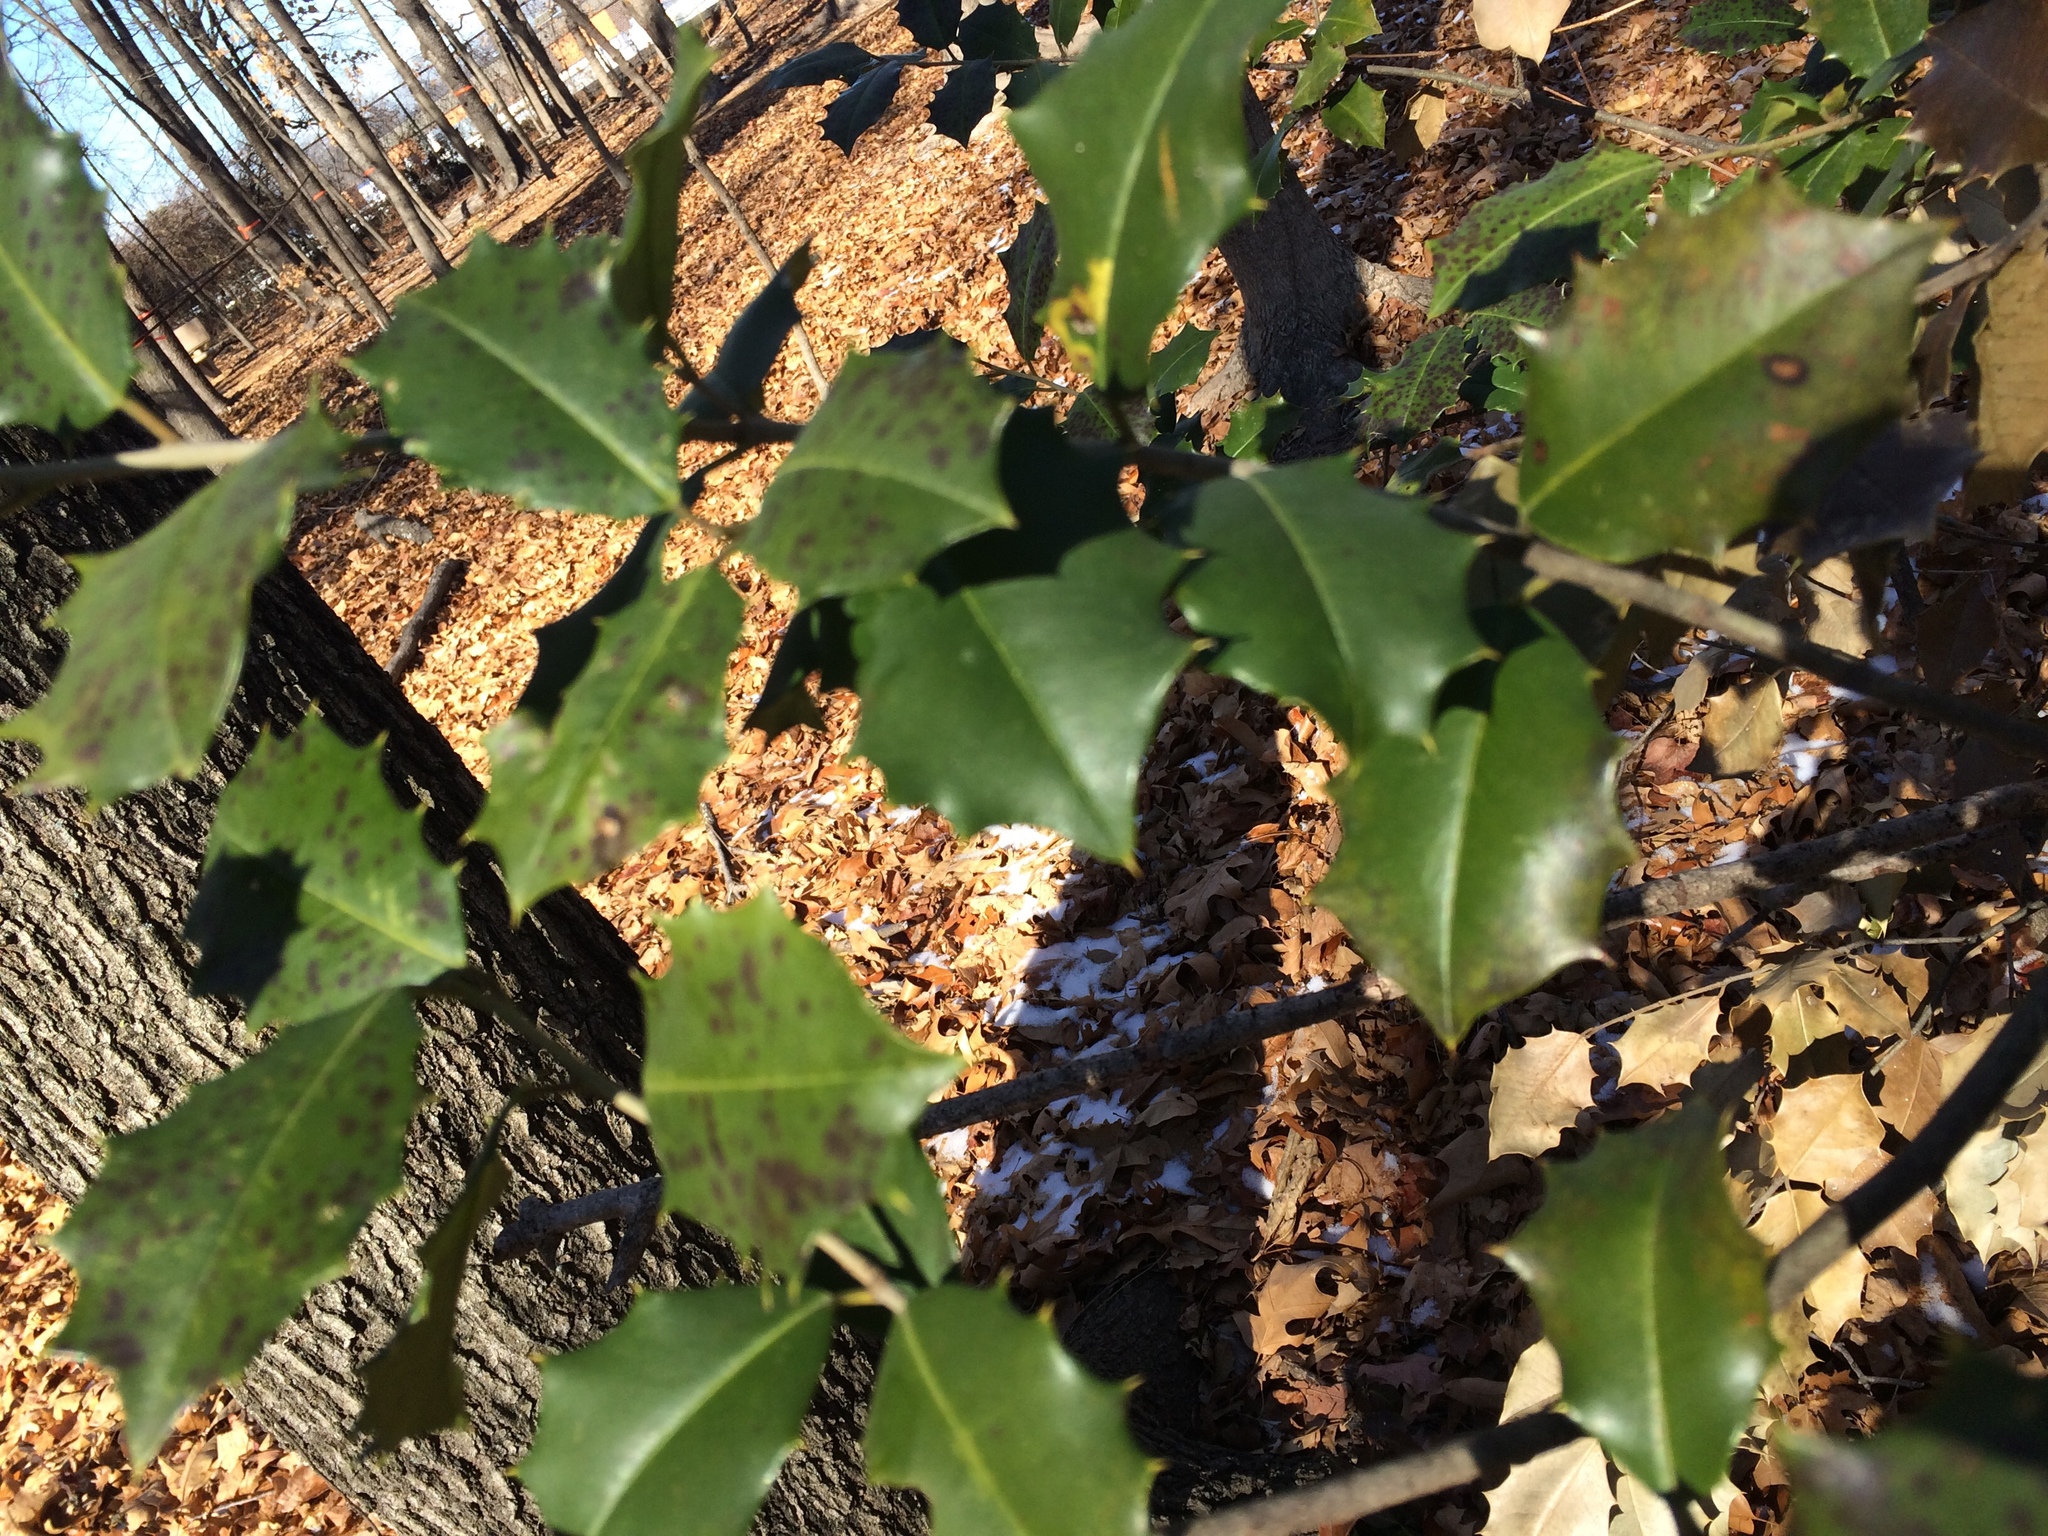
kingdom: Plantae
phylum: Tracheophyta
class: Magnoliopsida
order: Aquifoliales
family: Aquifoliaceae
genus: Ilex
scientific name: Ilex opaca
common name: American holly
